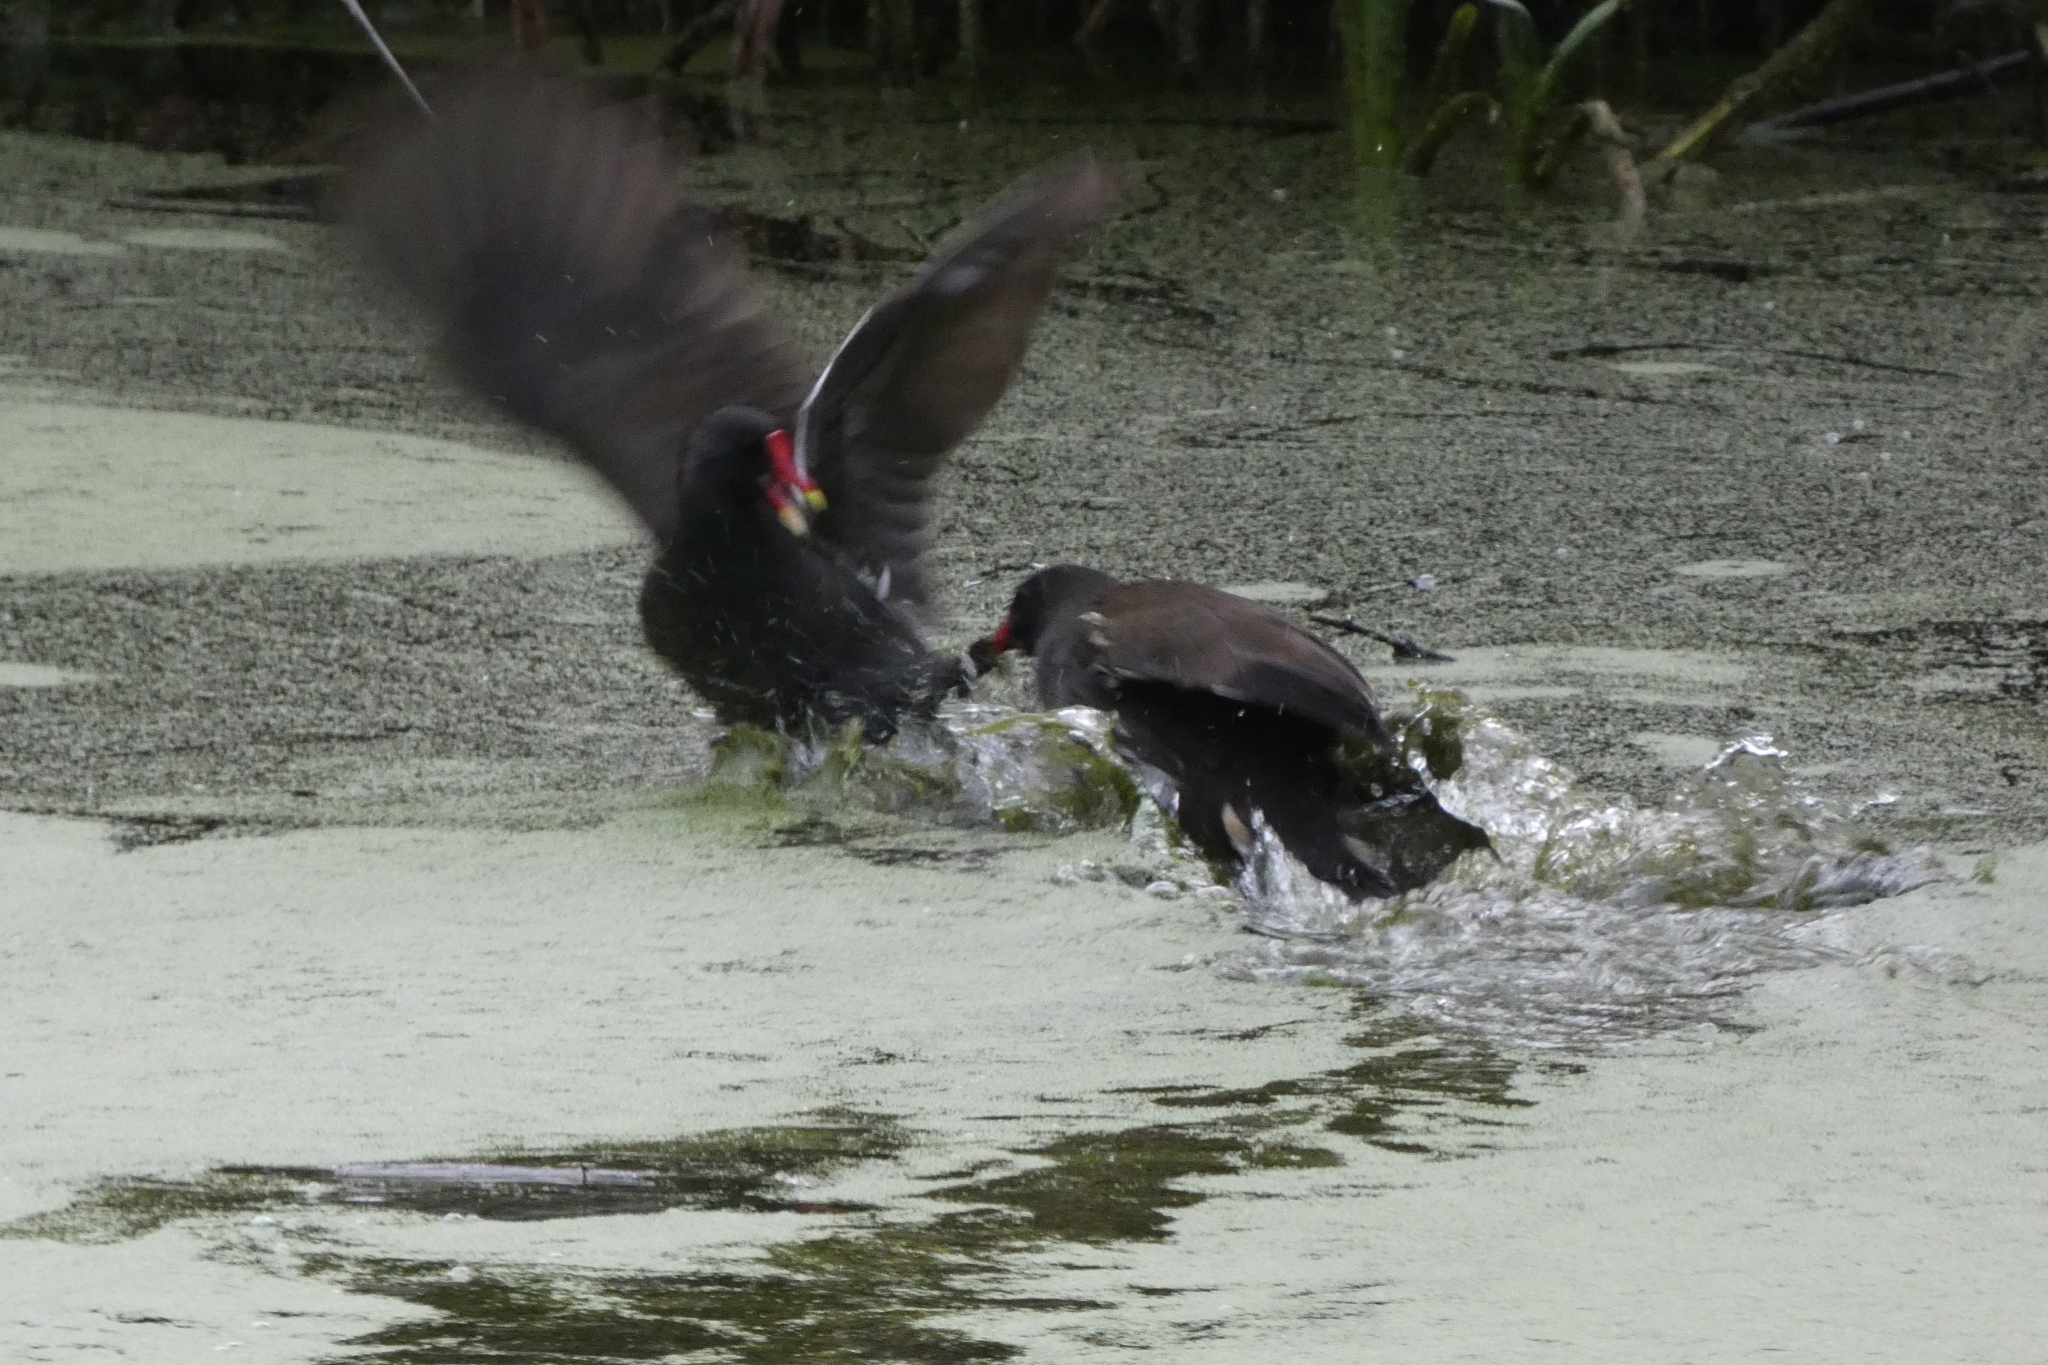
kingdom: Animalia
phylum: Chordata
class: Aves
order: Gruiformes
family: Rallidae
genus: Gallinula
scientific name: Gallinula chloropus
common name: Common moorhen
